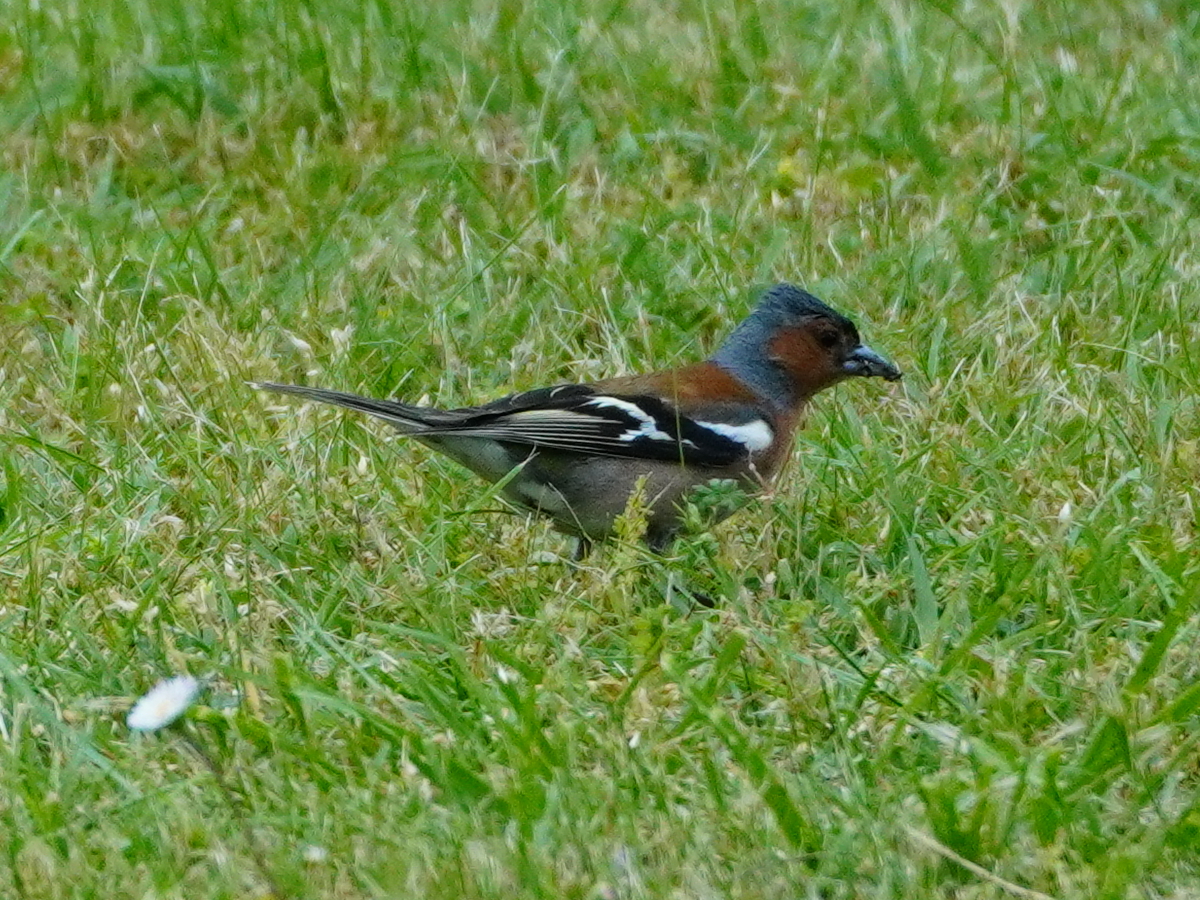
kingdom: Animalia
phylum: Chordata
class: Aves
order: Passeriformes
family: Fringillidae
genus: Fringilla
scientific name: Fringilla coelebs
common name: Common chaffinch
